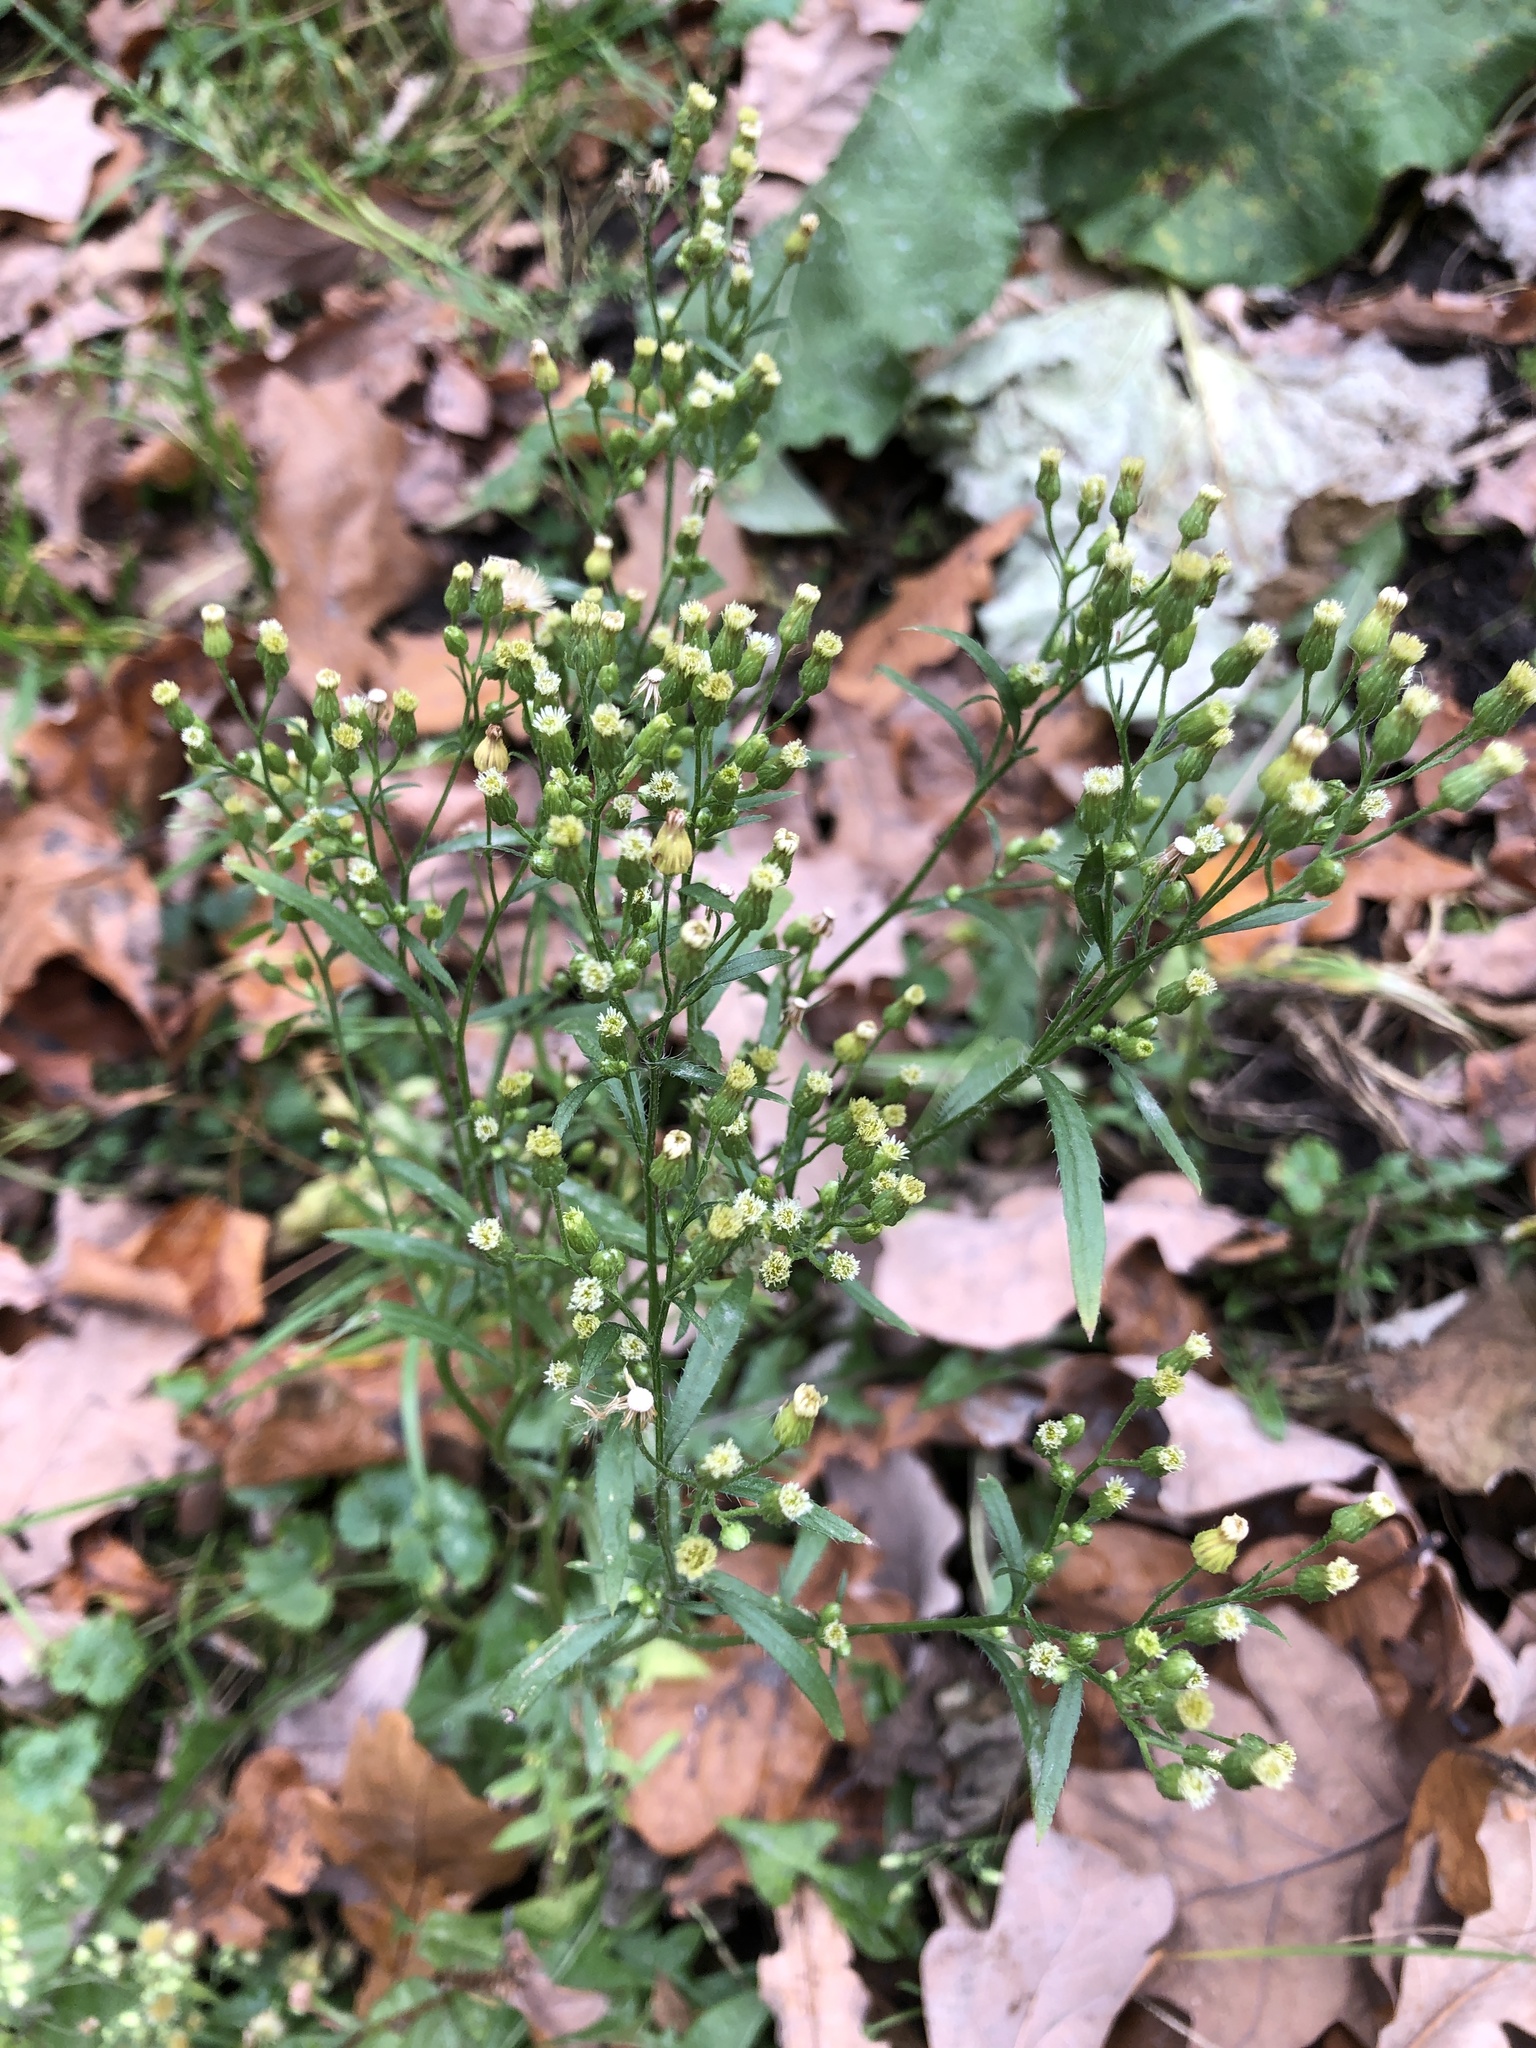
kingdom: Plantae
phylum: Tracheophyta
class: Magnoliopsida
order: Asterales
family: Asteraceae
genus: Erigeron
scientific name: Erigeron canadensis
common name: Canadian fleabane
